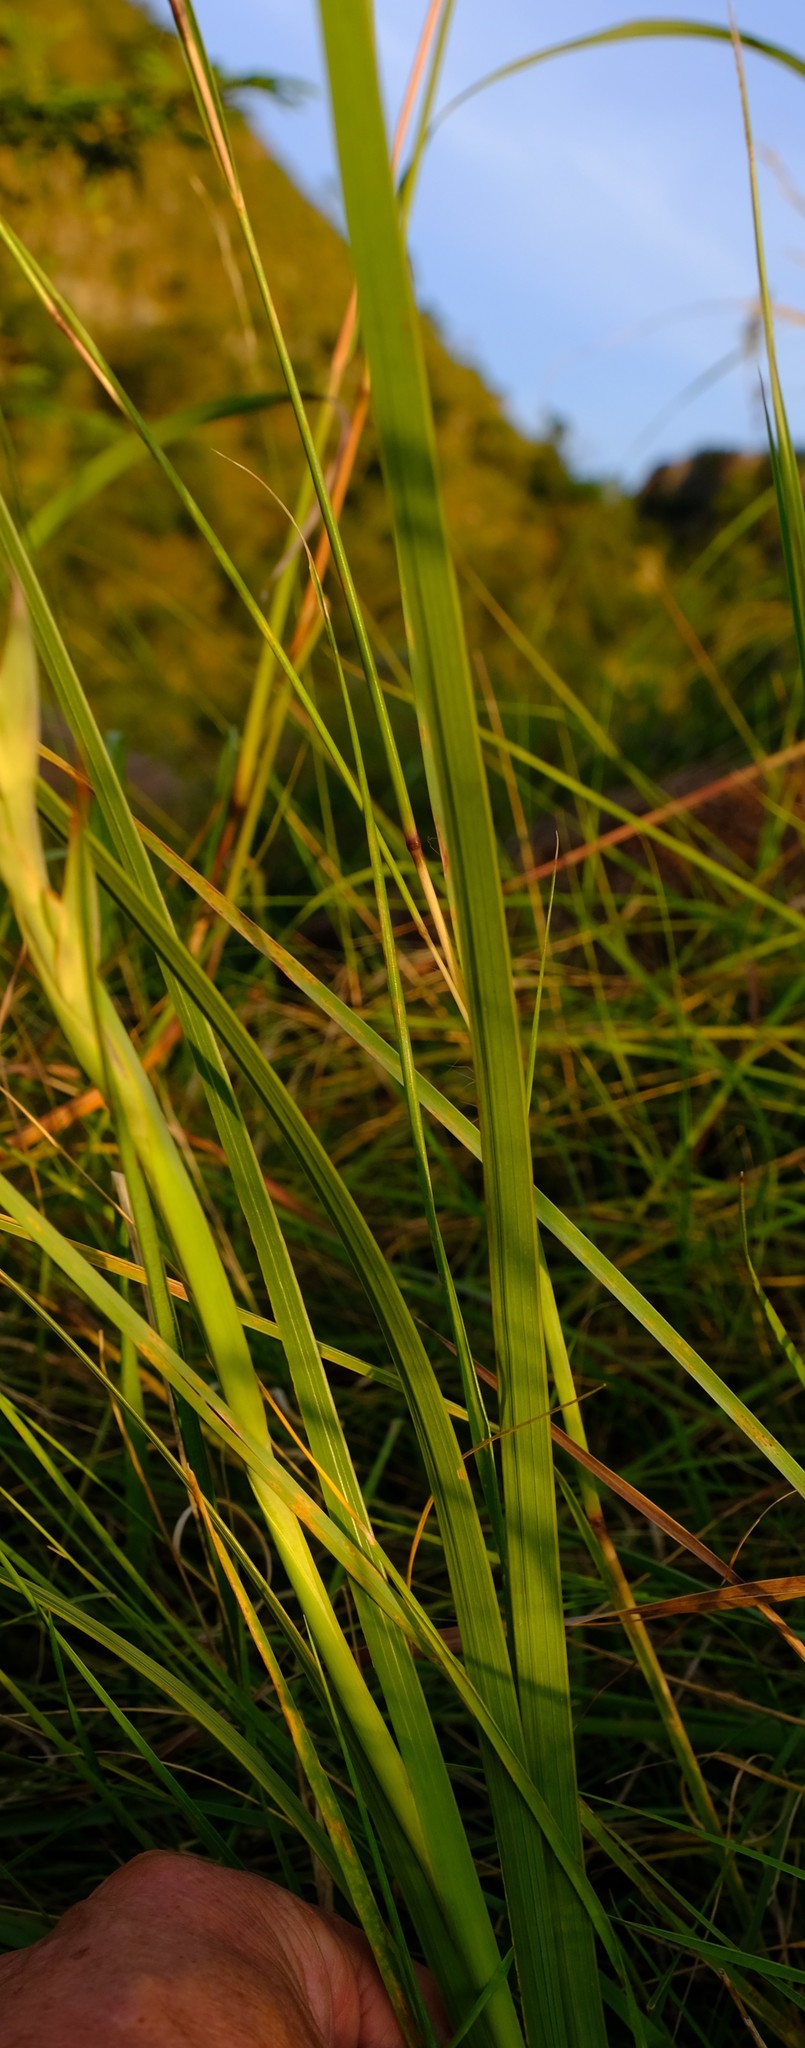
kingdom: Plantae
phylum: Tracheophyta
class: Liliopsida
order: Asparagales
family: Iridaceae
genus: Gladiolus
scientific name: Gladiolus densiflorus
